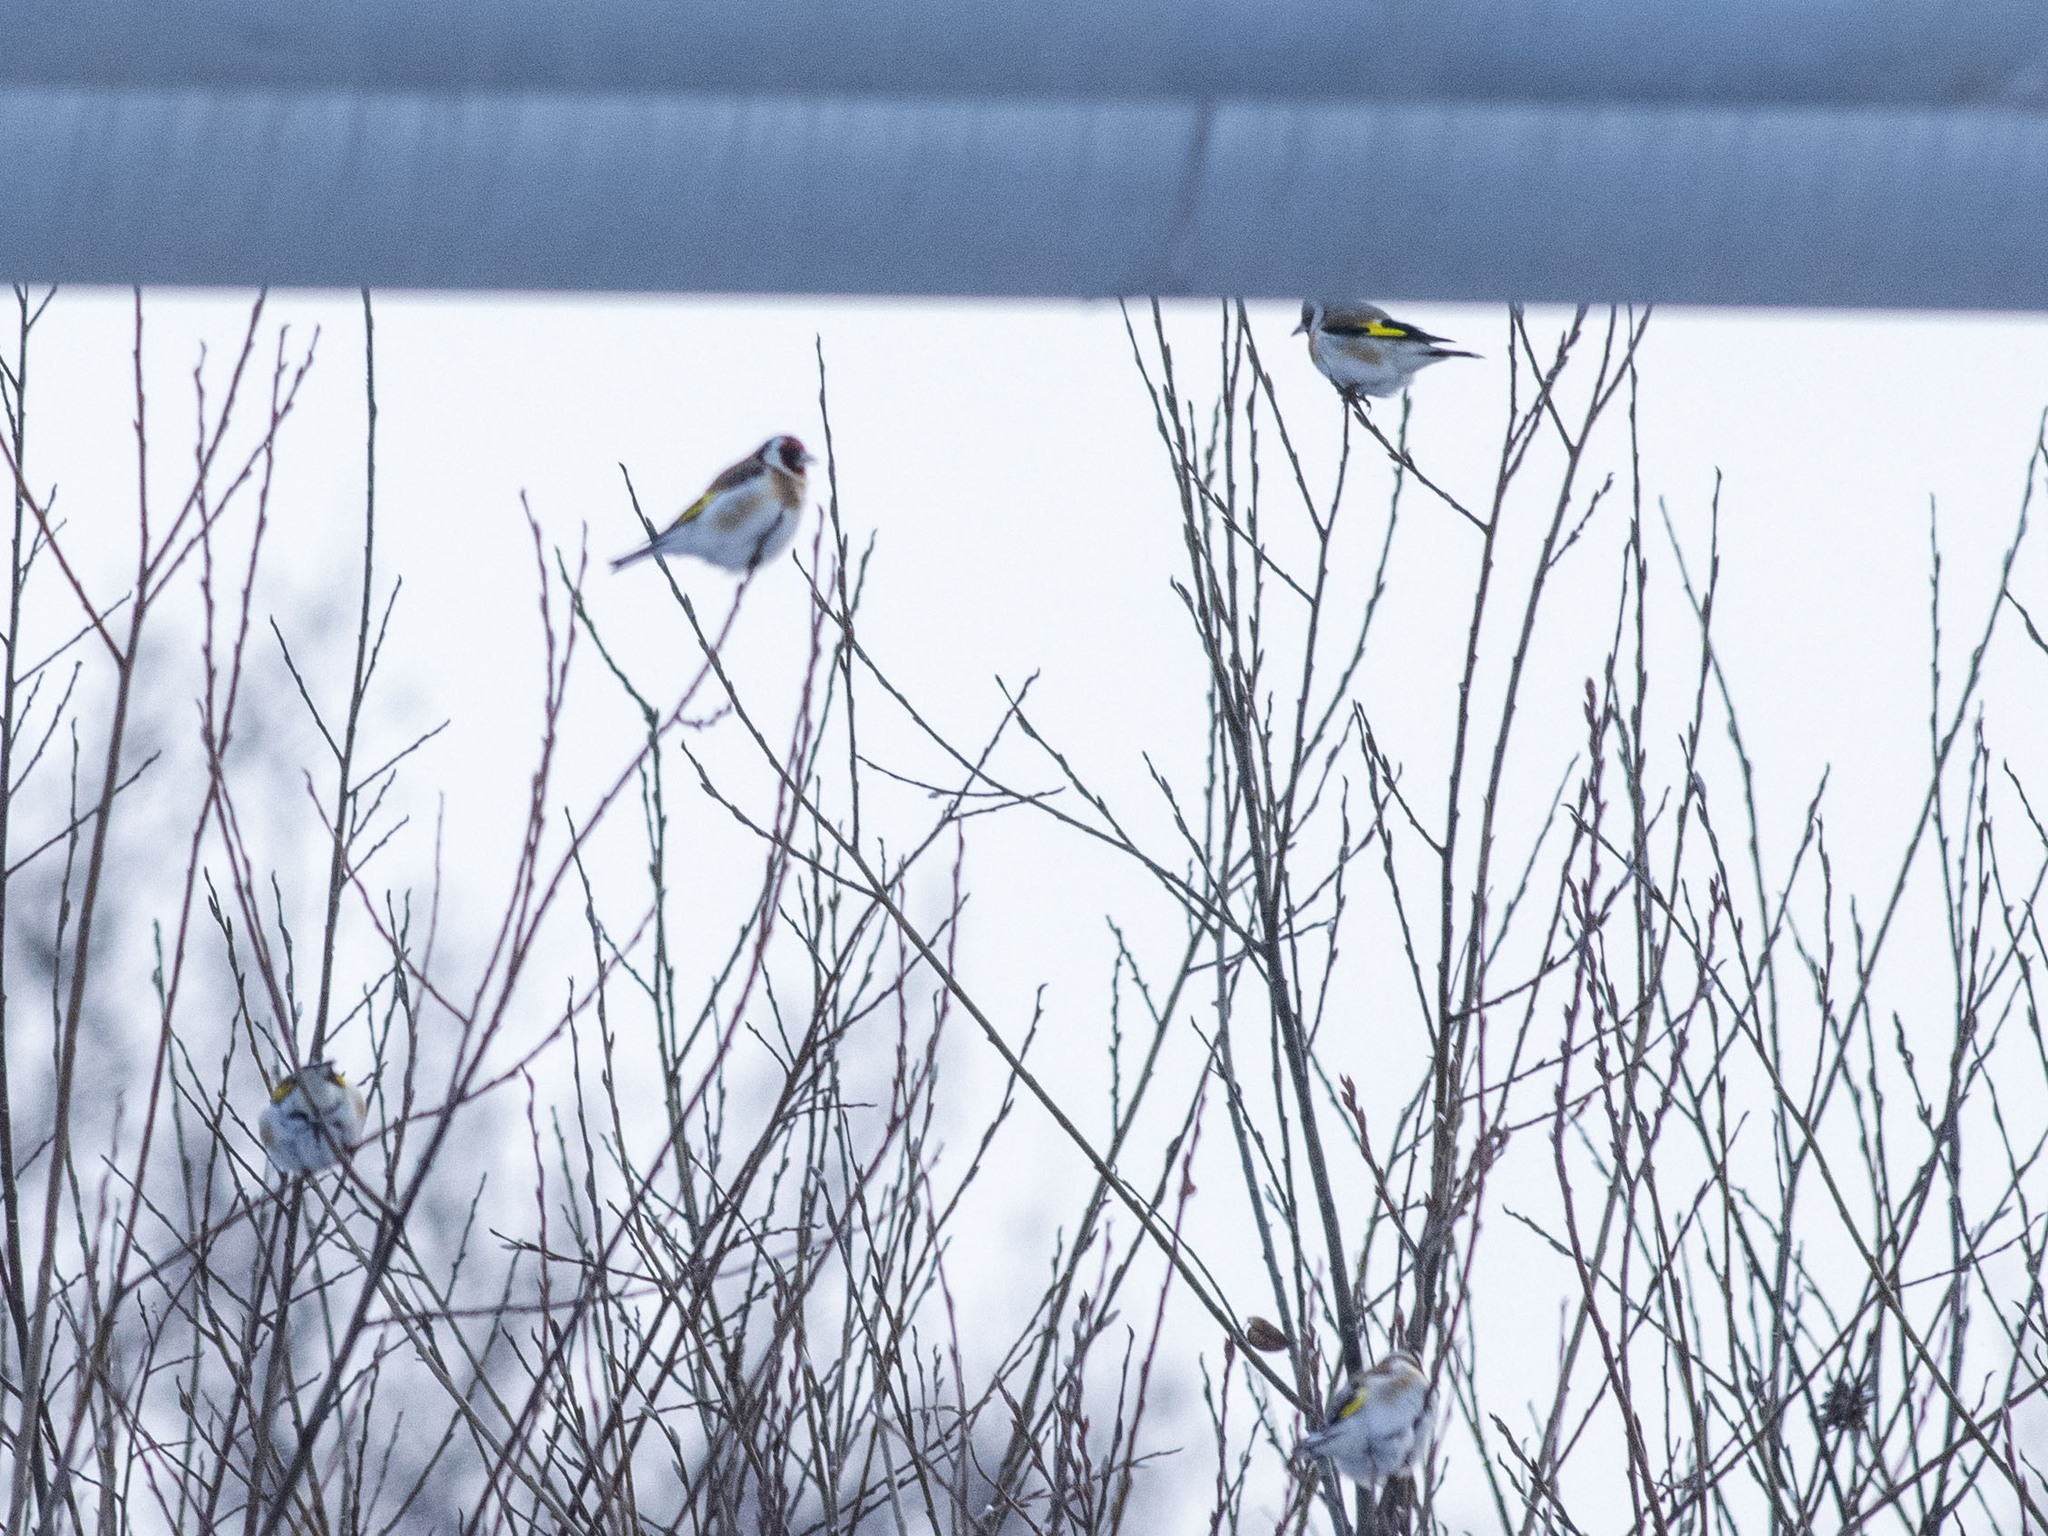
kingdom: Animalia
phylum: Chordata
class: Aves
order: Passeriformes
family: Fringillidae
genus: Carduelis
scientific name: Carduelis carduelis
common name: European goldfinch
